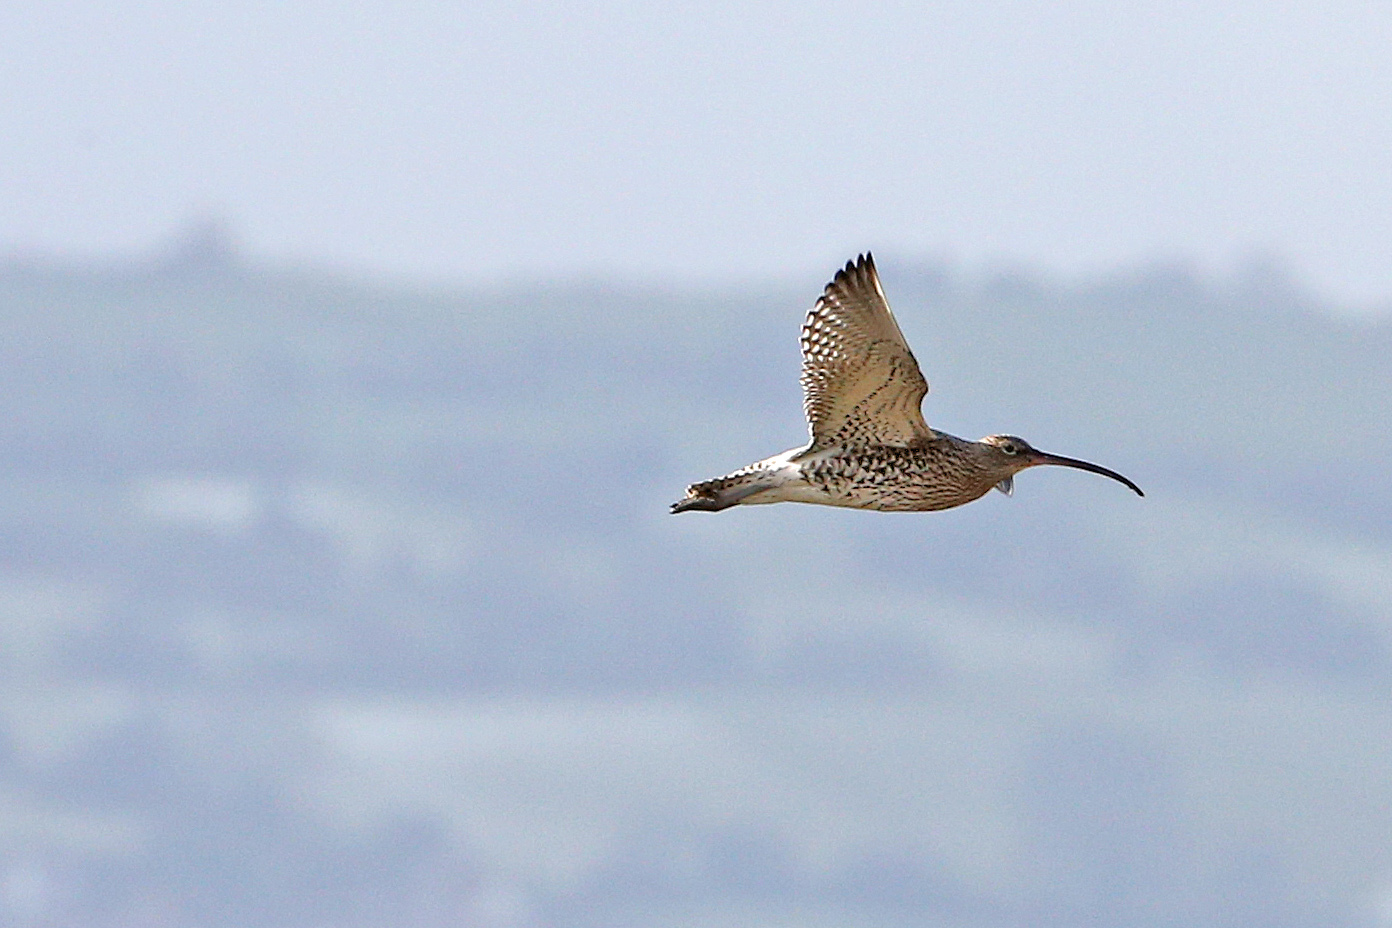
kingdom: Animalia
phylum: Chordata
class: Aves
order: Charadriiformes
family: Scolopacidae
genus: Numenius
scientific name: Numenius arquata
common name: Eurasian curlew
